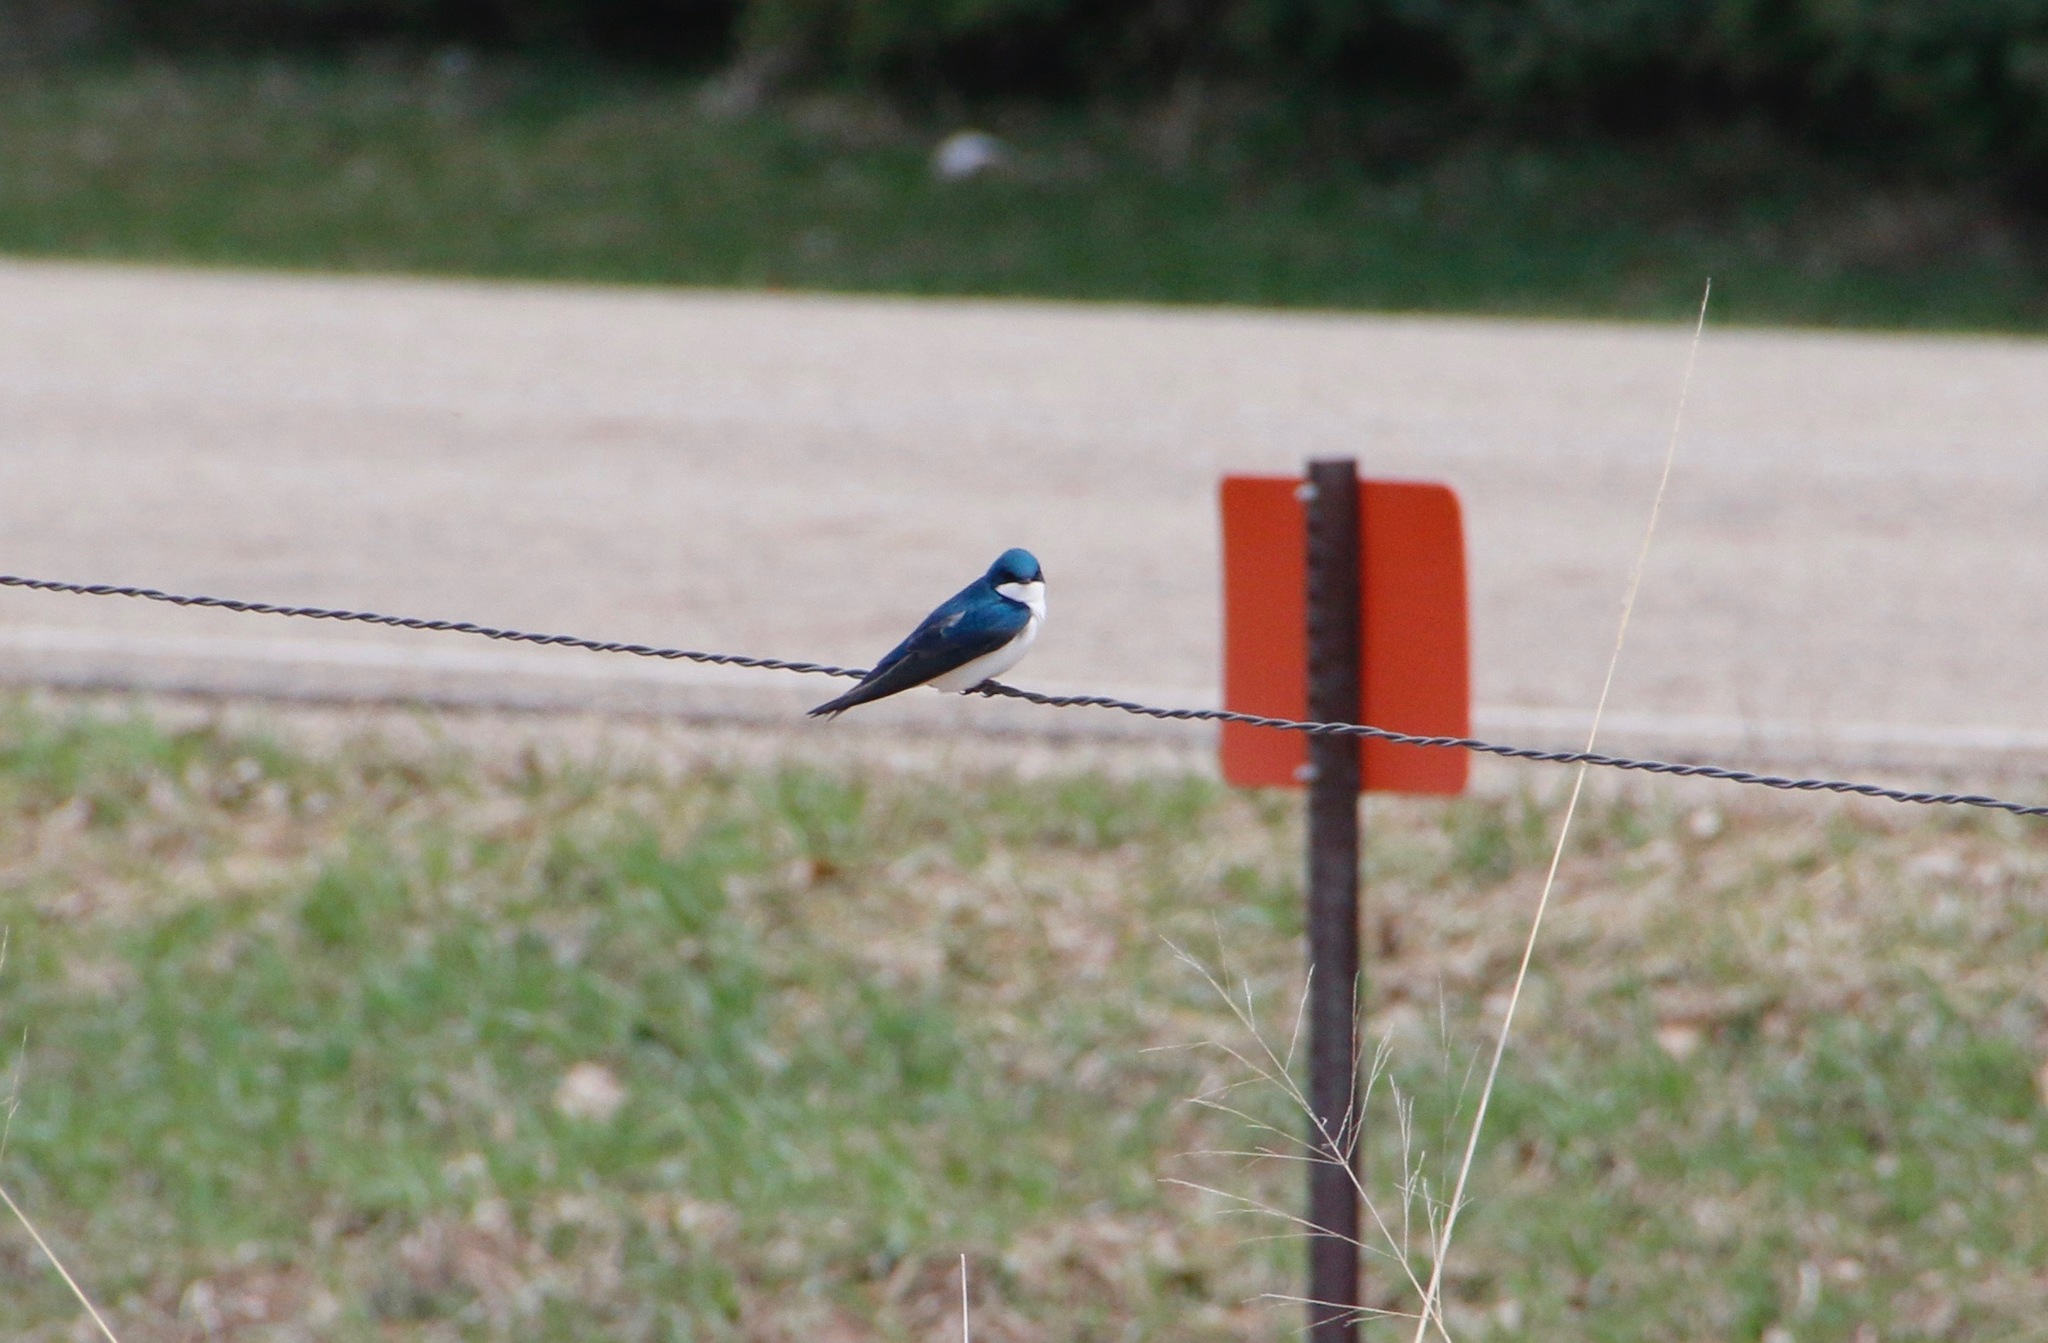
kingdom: Animalia
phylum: Chordata
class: Aves
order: Passeriformes
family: Hirundinidae
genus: Tachycineta
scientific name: Tachycineta bicolor
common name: Tree swallow
